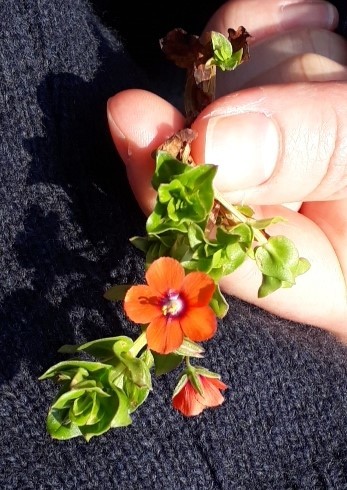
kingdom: Plantae
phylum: Tracheophyta
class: Magnoliopsida
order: Ericales
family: Primulaceae
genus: Lysimachia
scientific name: Lysimachia arvensis
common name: Scarlet pimpernel
